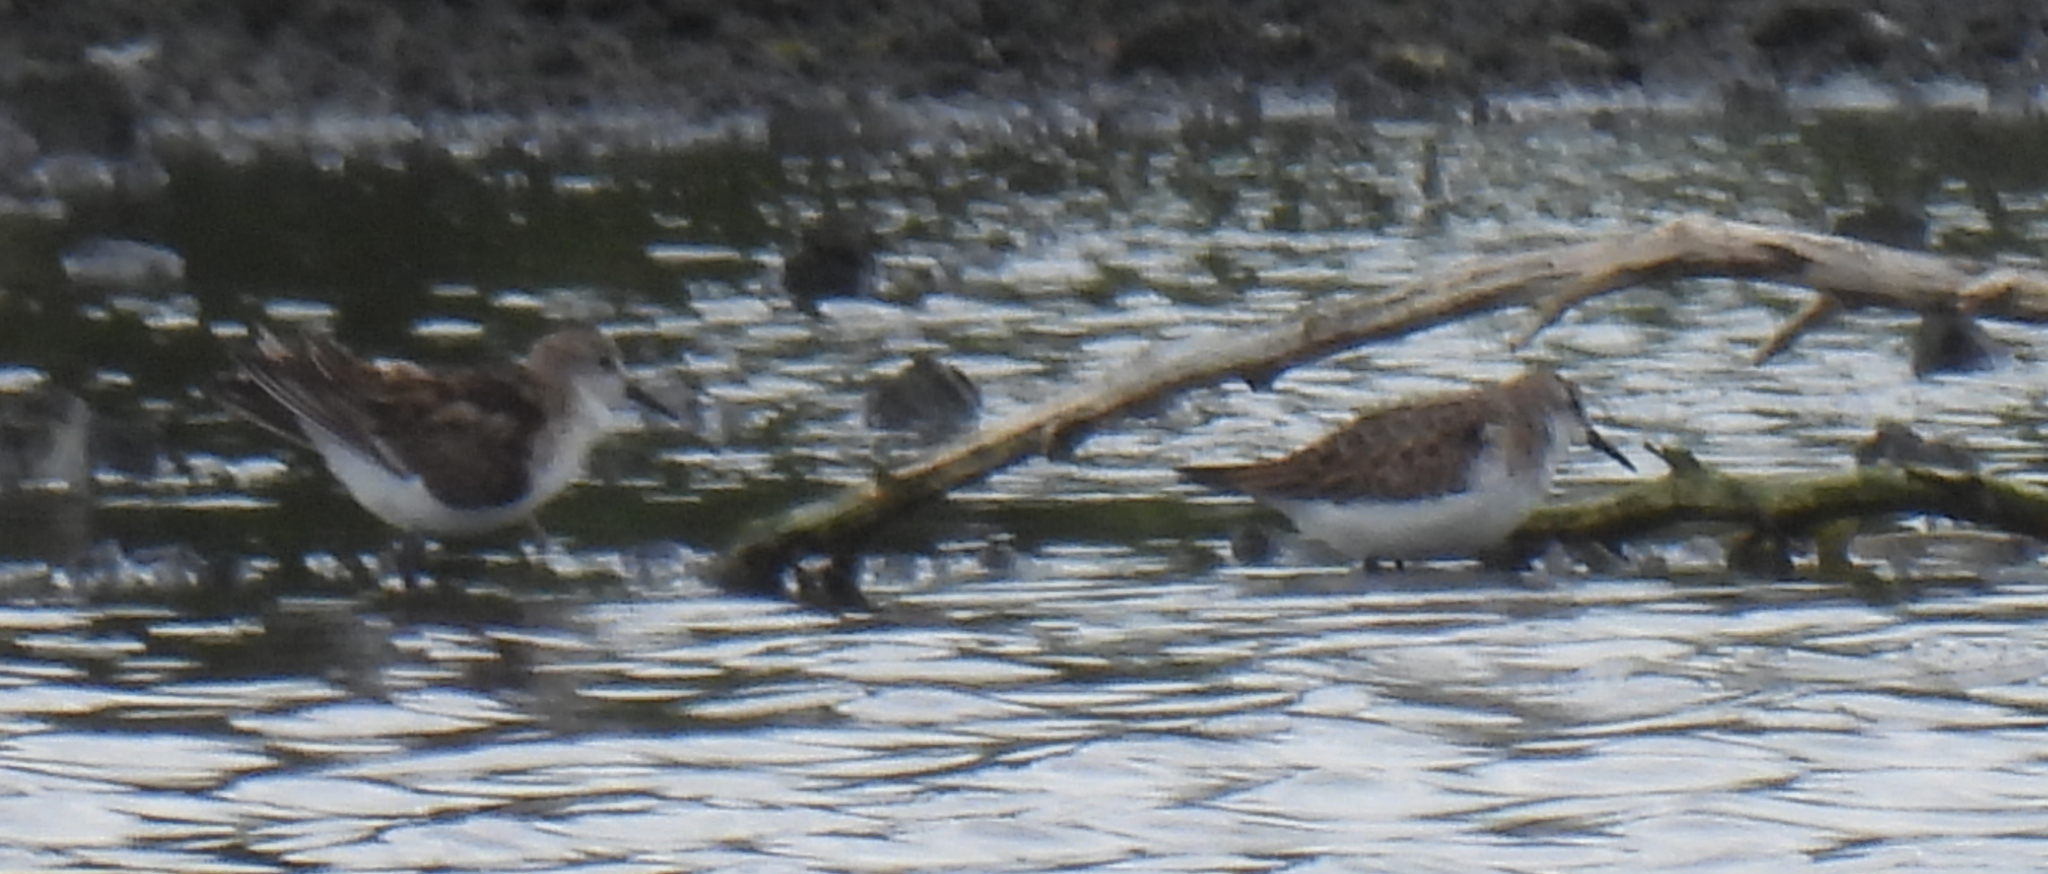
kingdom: Animalia
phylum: Chordata
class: Aves
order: Charadriiformes
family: Scolopacidae
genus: Calidris
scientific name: Calidris minuta
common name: Little stint
